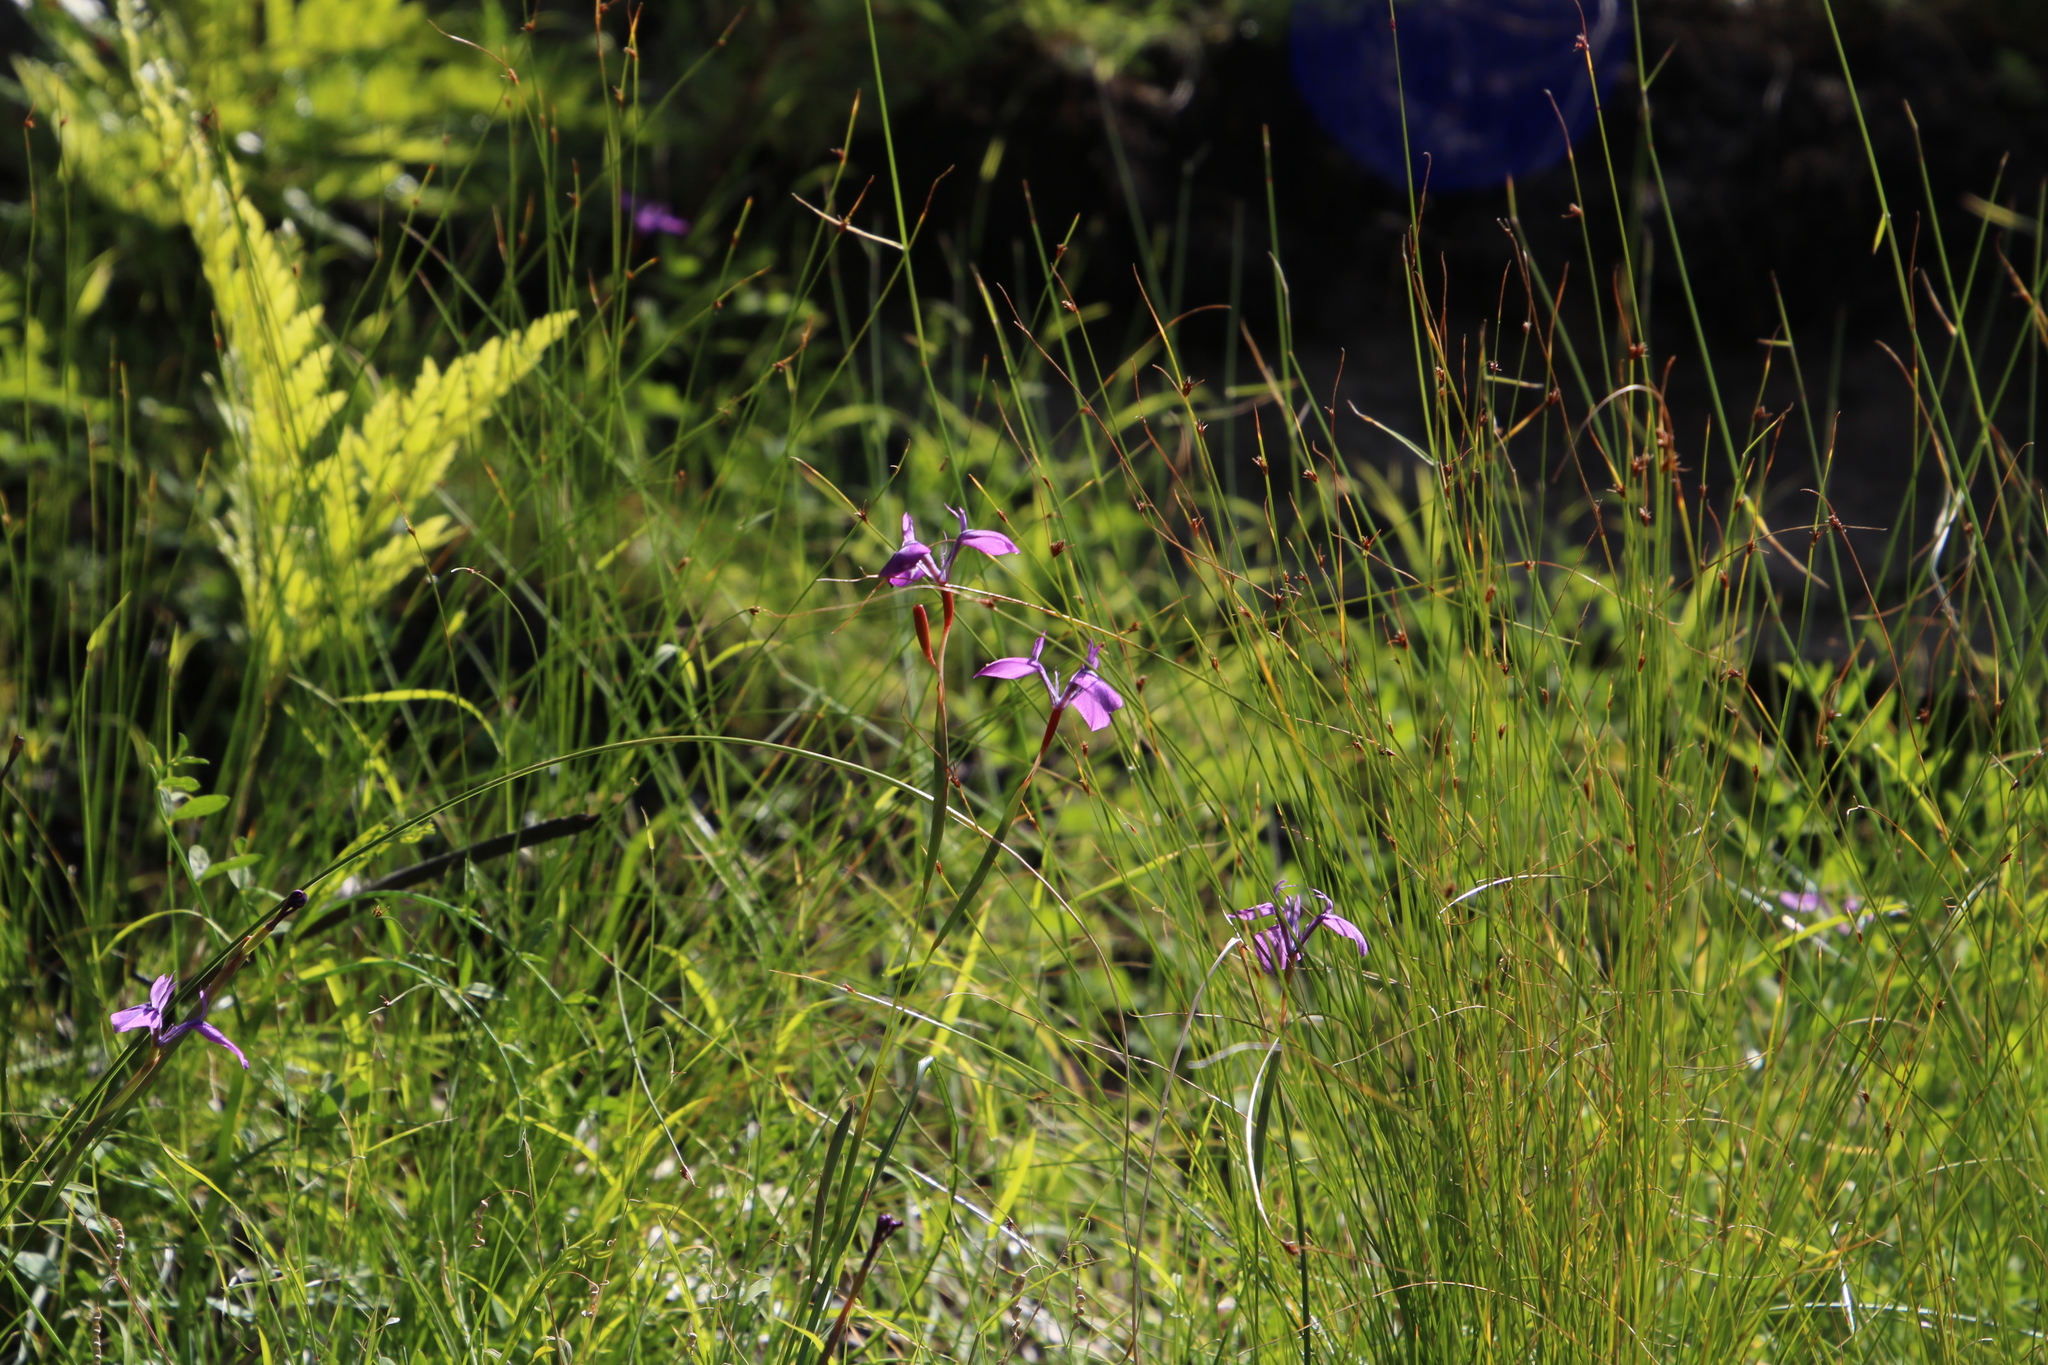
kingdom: Plantae
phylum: Tracheophyta
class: Liliopsida
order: Asparagales
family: Iridaceae
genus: Moraea
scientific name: Moraea tripetala
